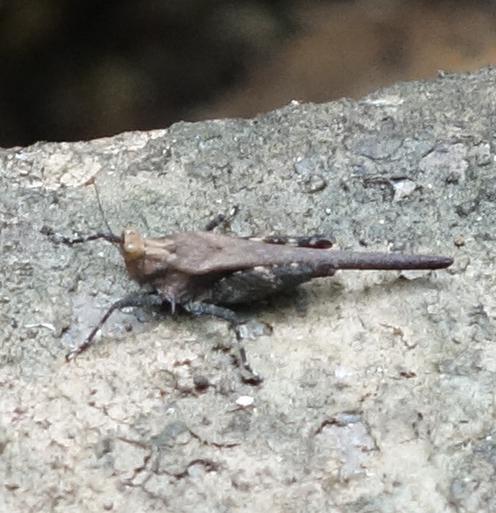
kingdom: Animalia
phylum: Arthropoda
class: Insecta
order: Orthoptera
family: Tetrigidae
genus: Criotettix
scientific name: Criotettix bispinosus
